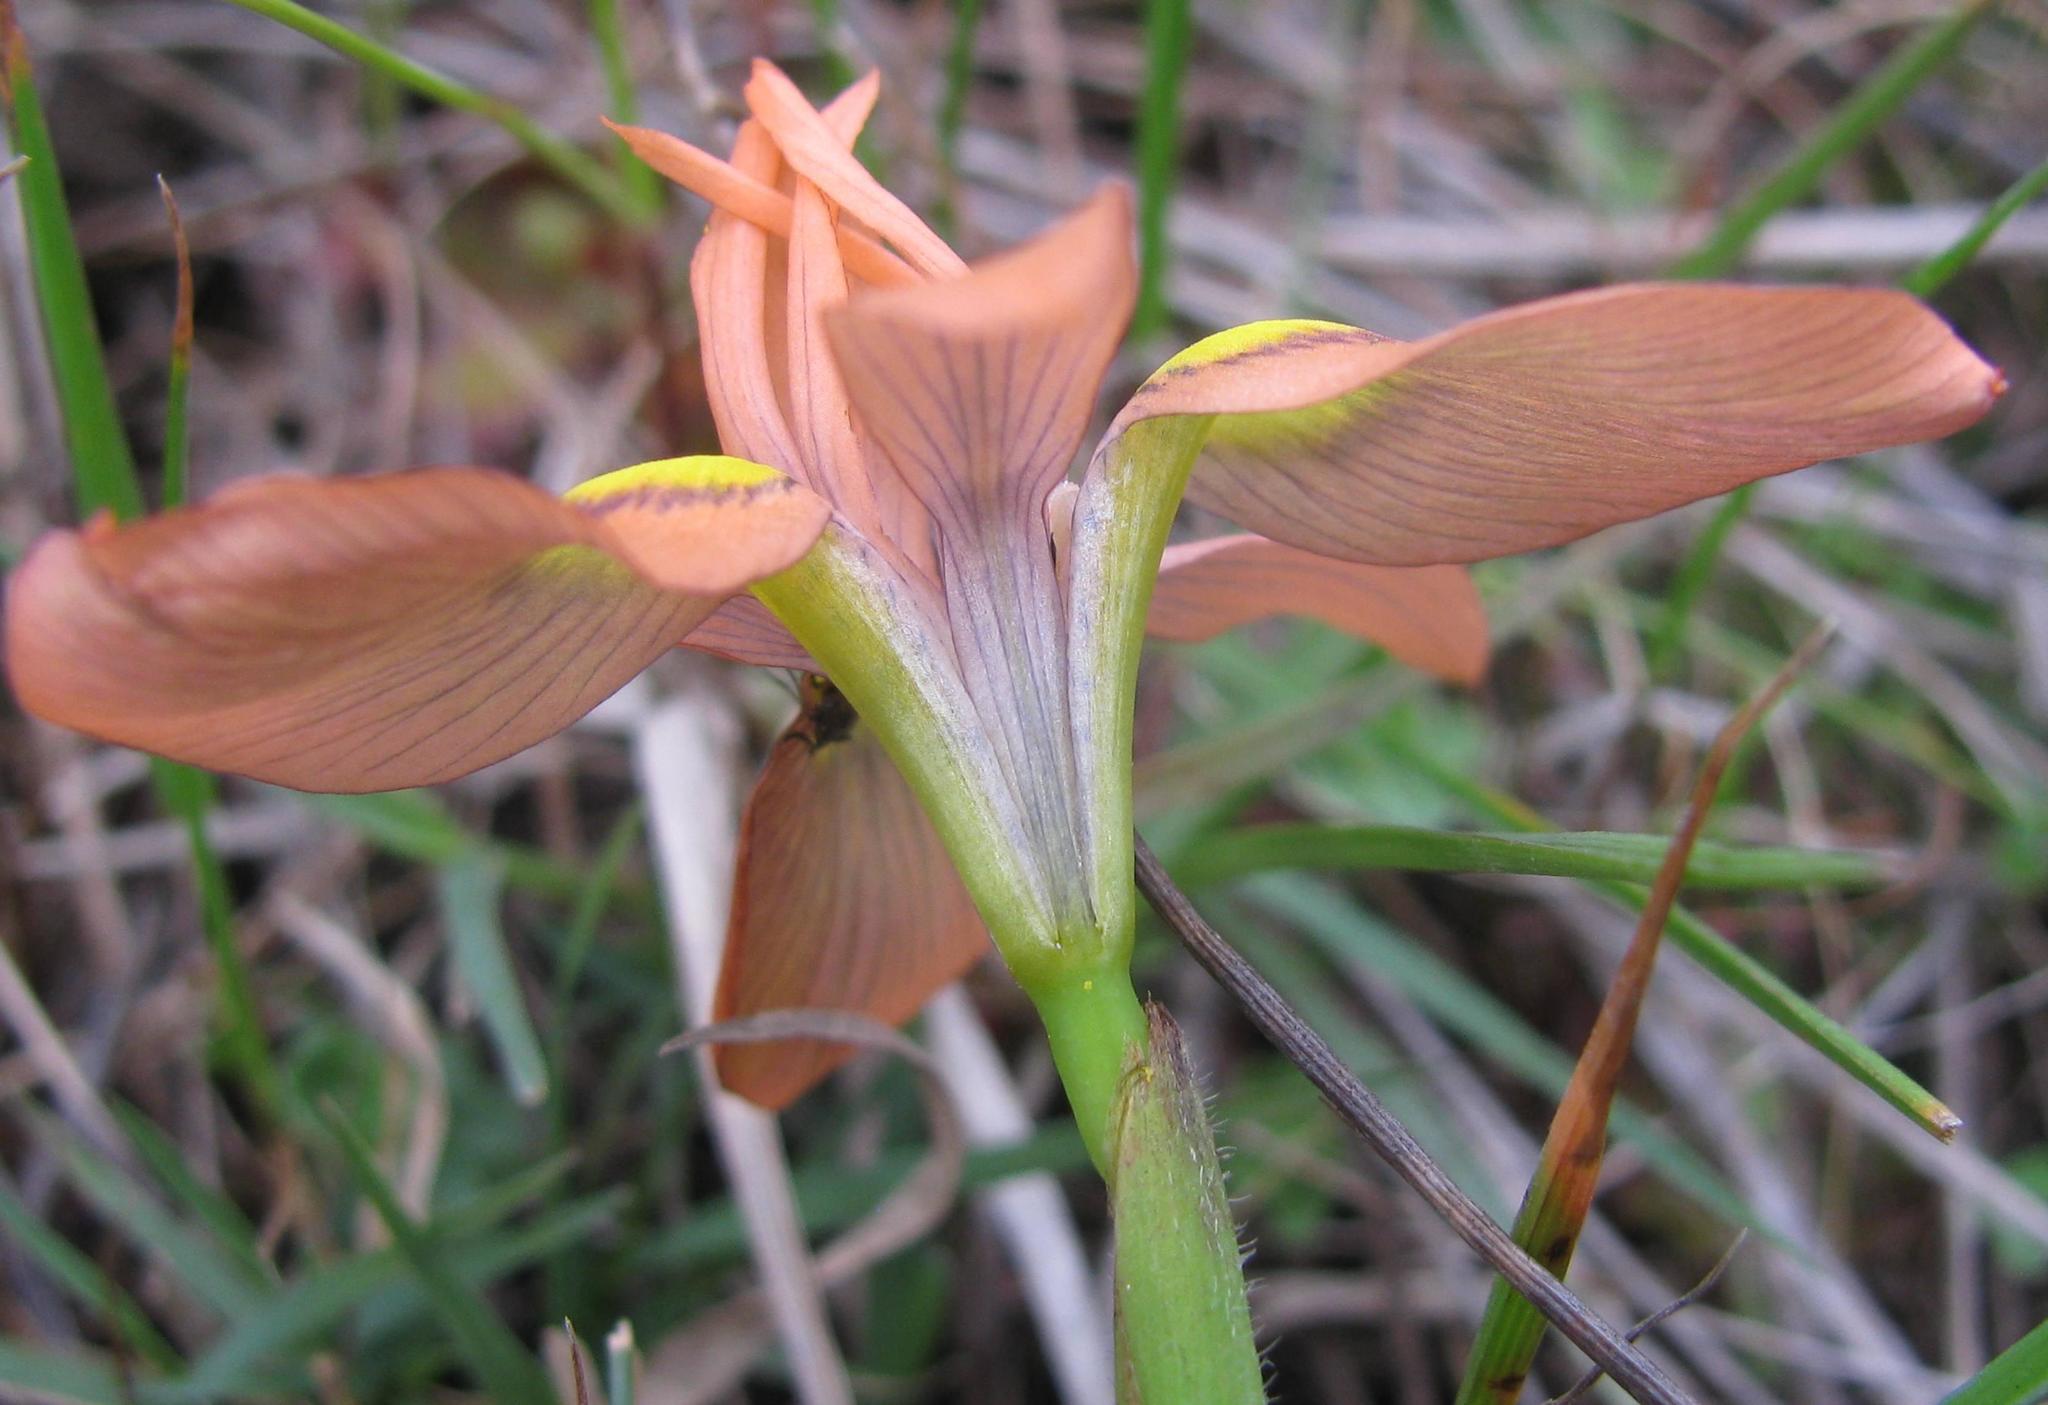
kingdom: Plantae
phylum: Tracheophyta
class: Liliopsida
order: Asparagales
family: Iridaceae
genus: Moraea
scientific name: Moraea papilionacea
